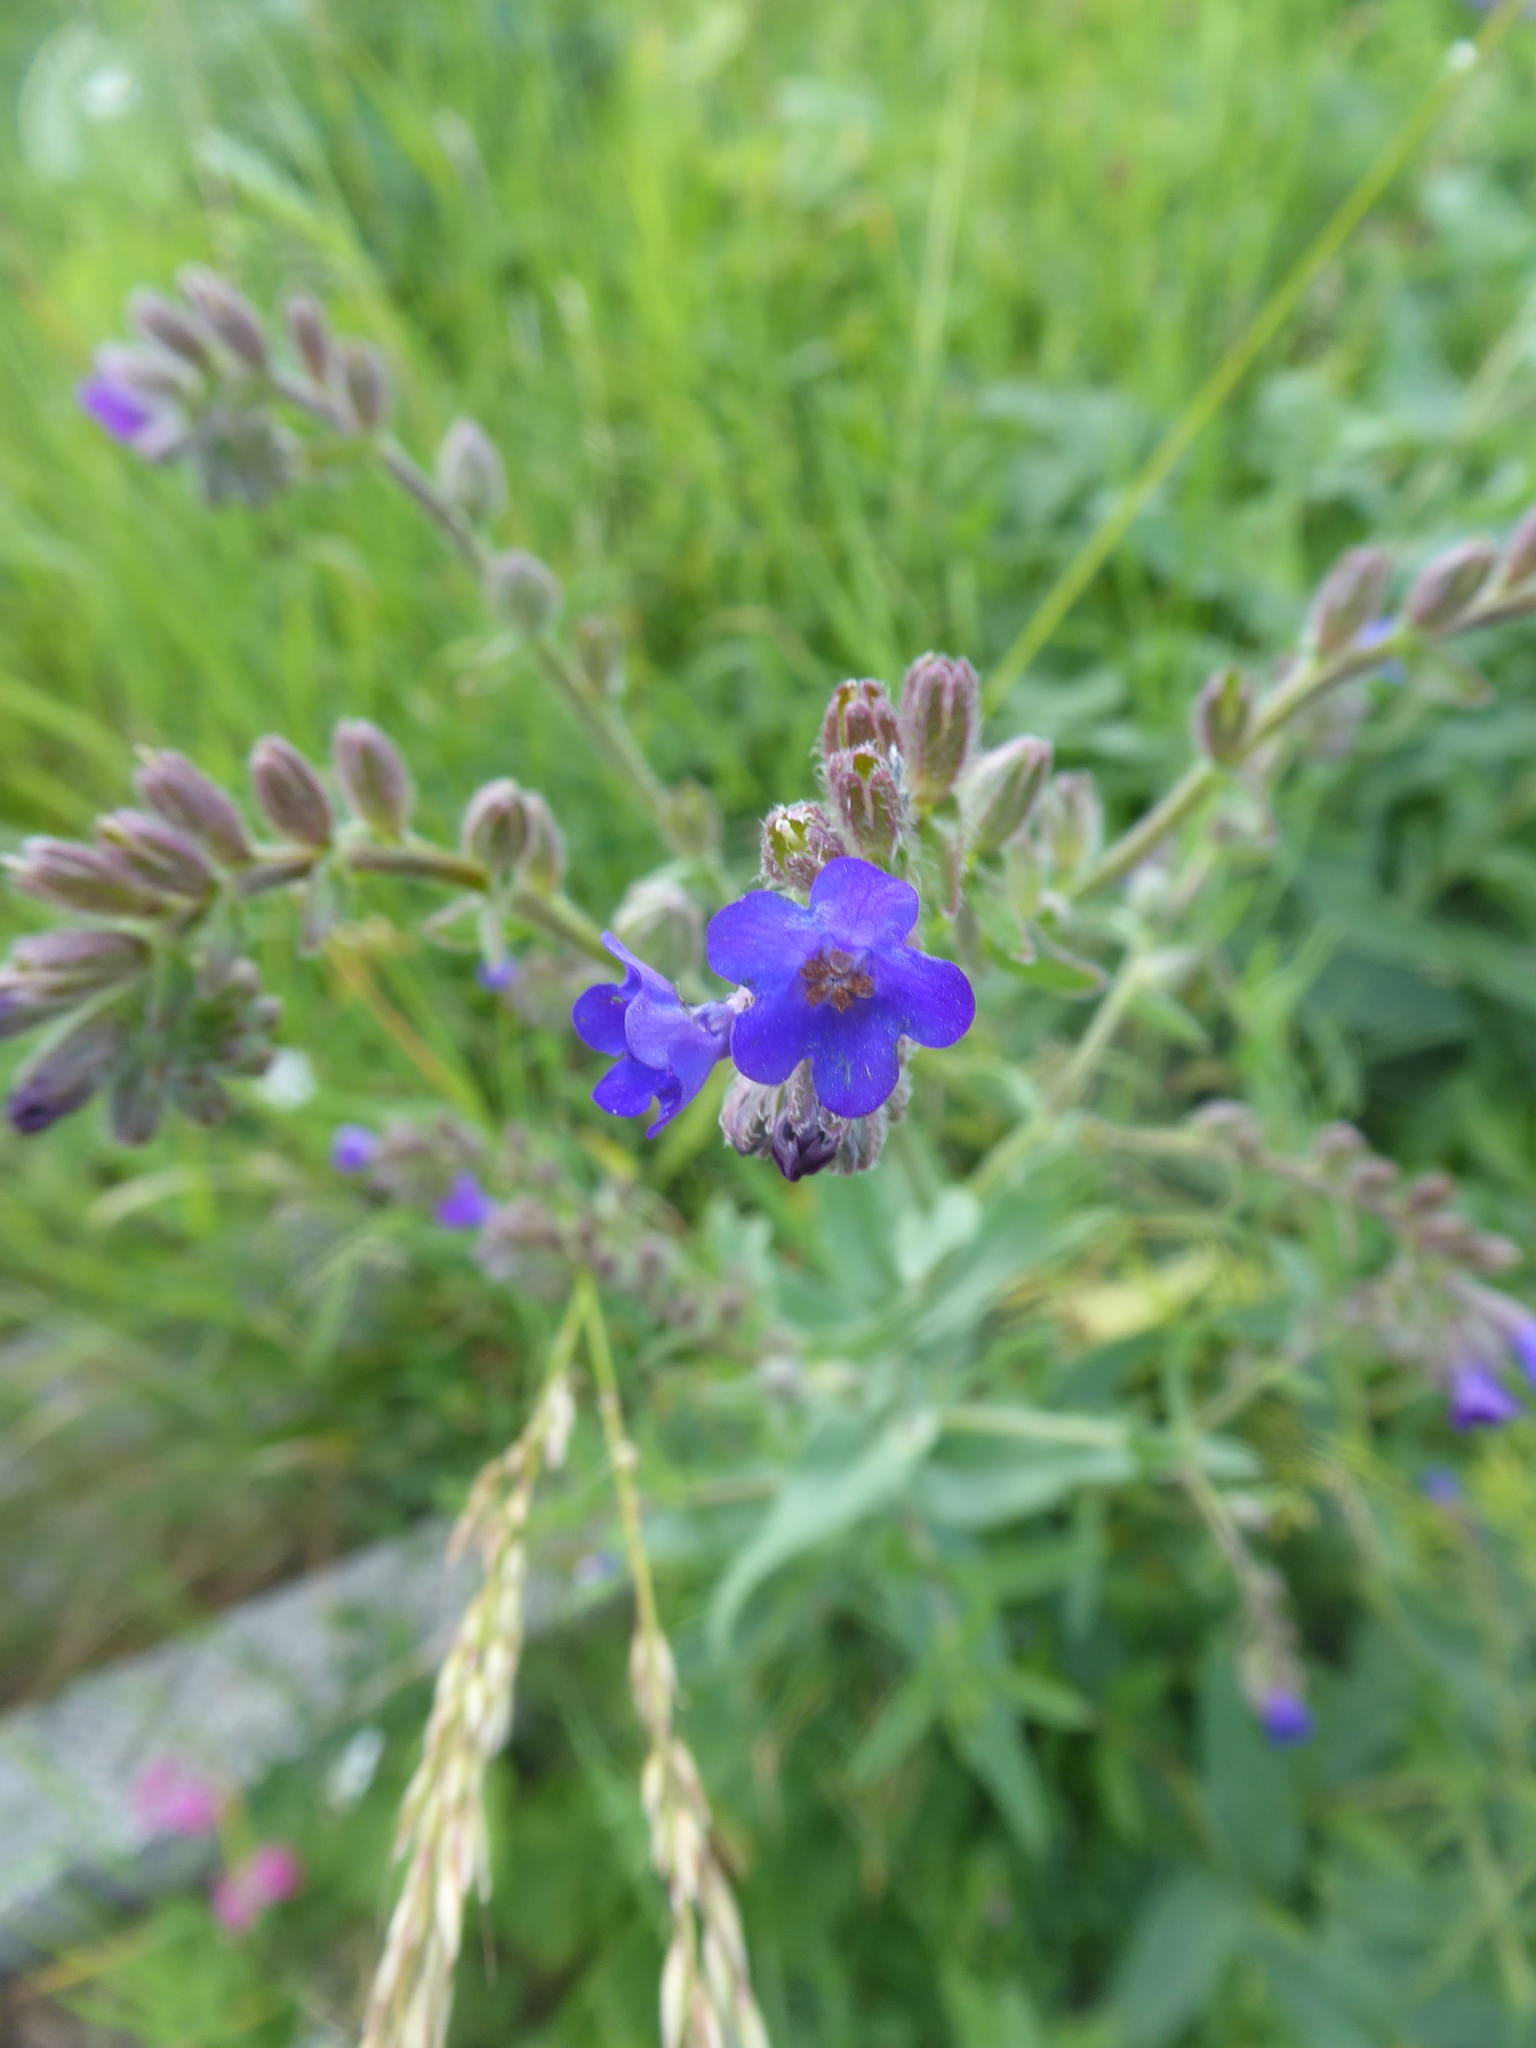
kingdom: Plantae
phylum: Tracheophyta
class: Magnoliopsida
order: Boraginales
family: Boraginaceae
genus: Anchusa
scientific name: Anchusa officinalis
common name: Alkanet
